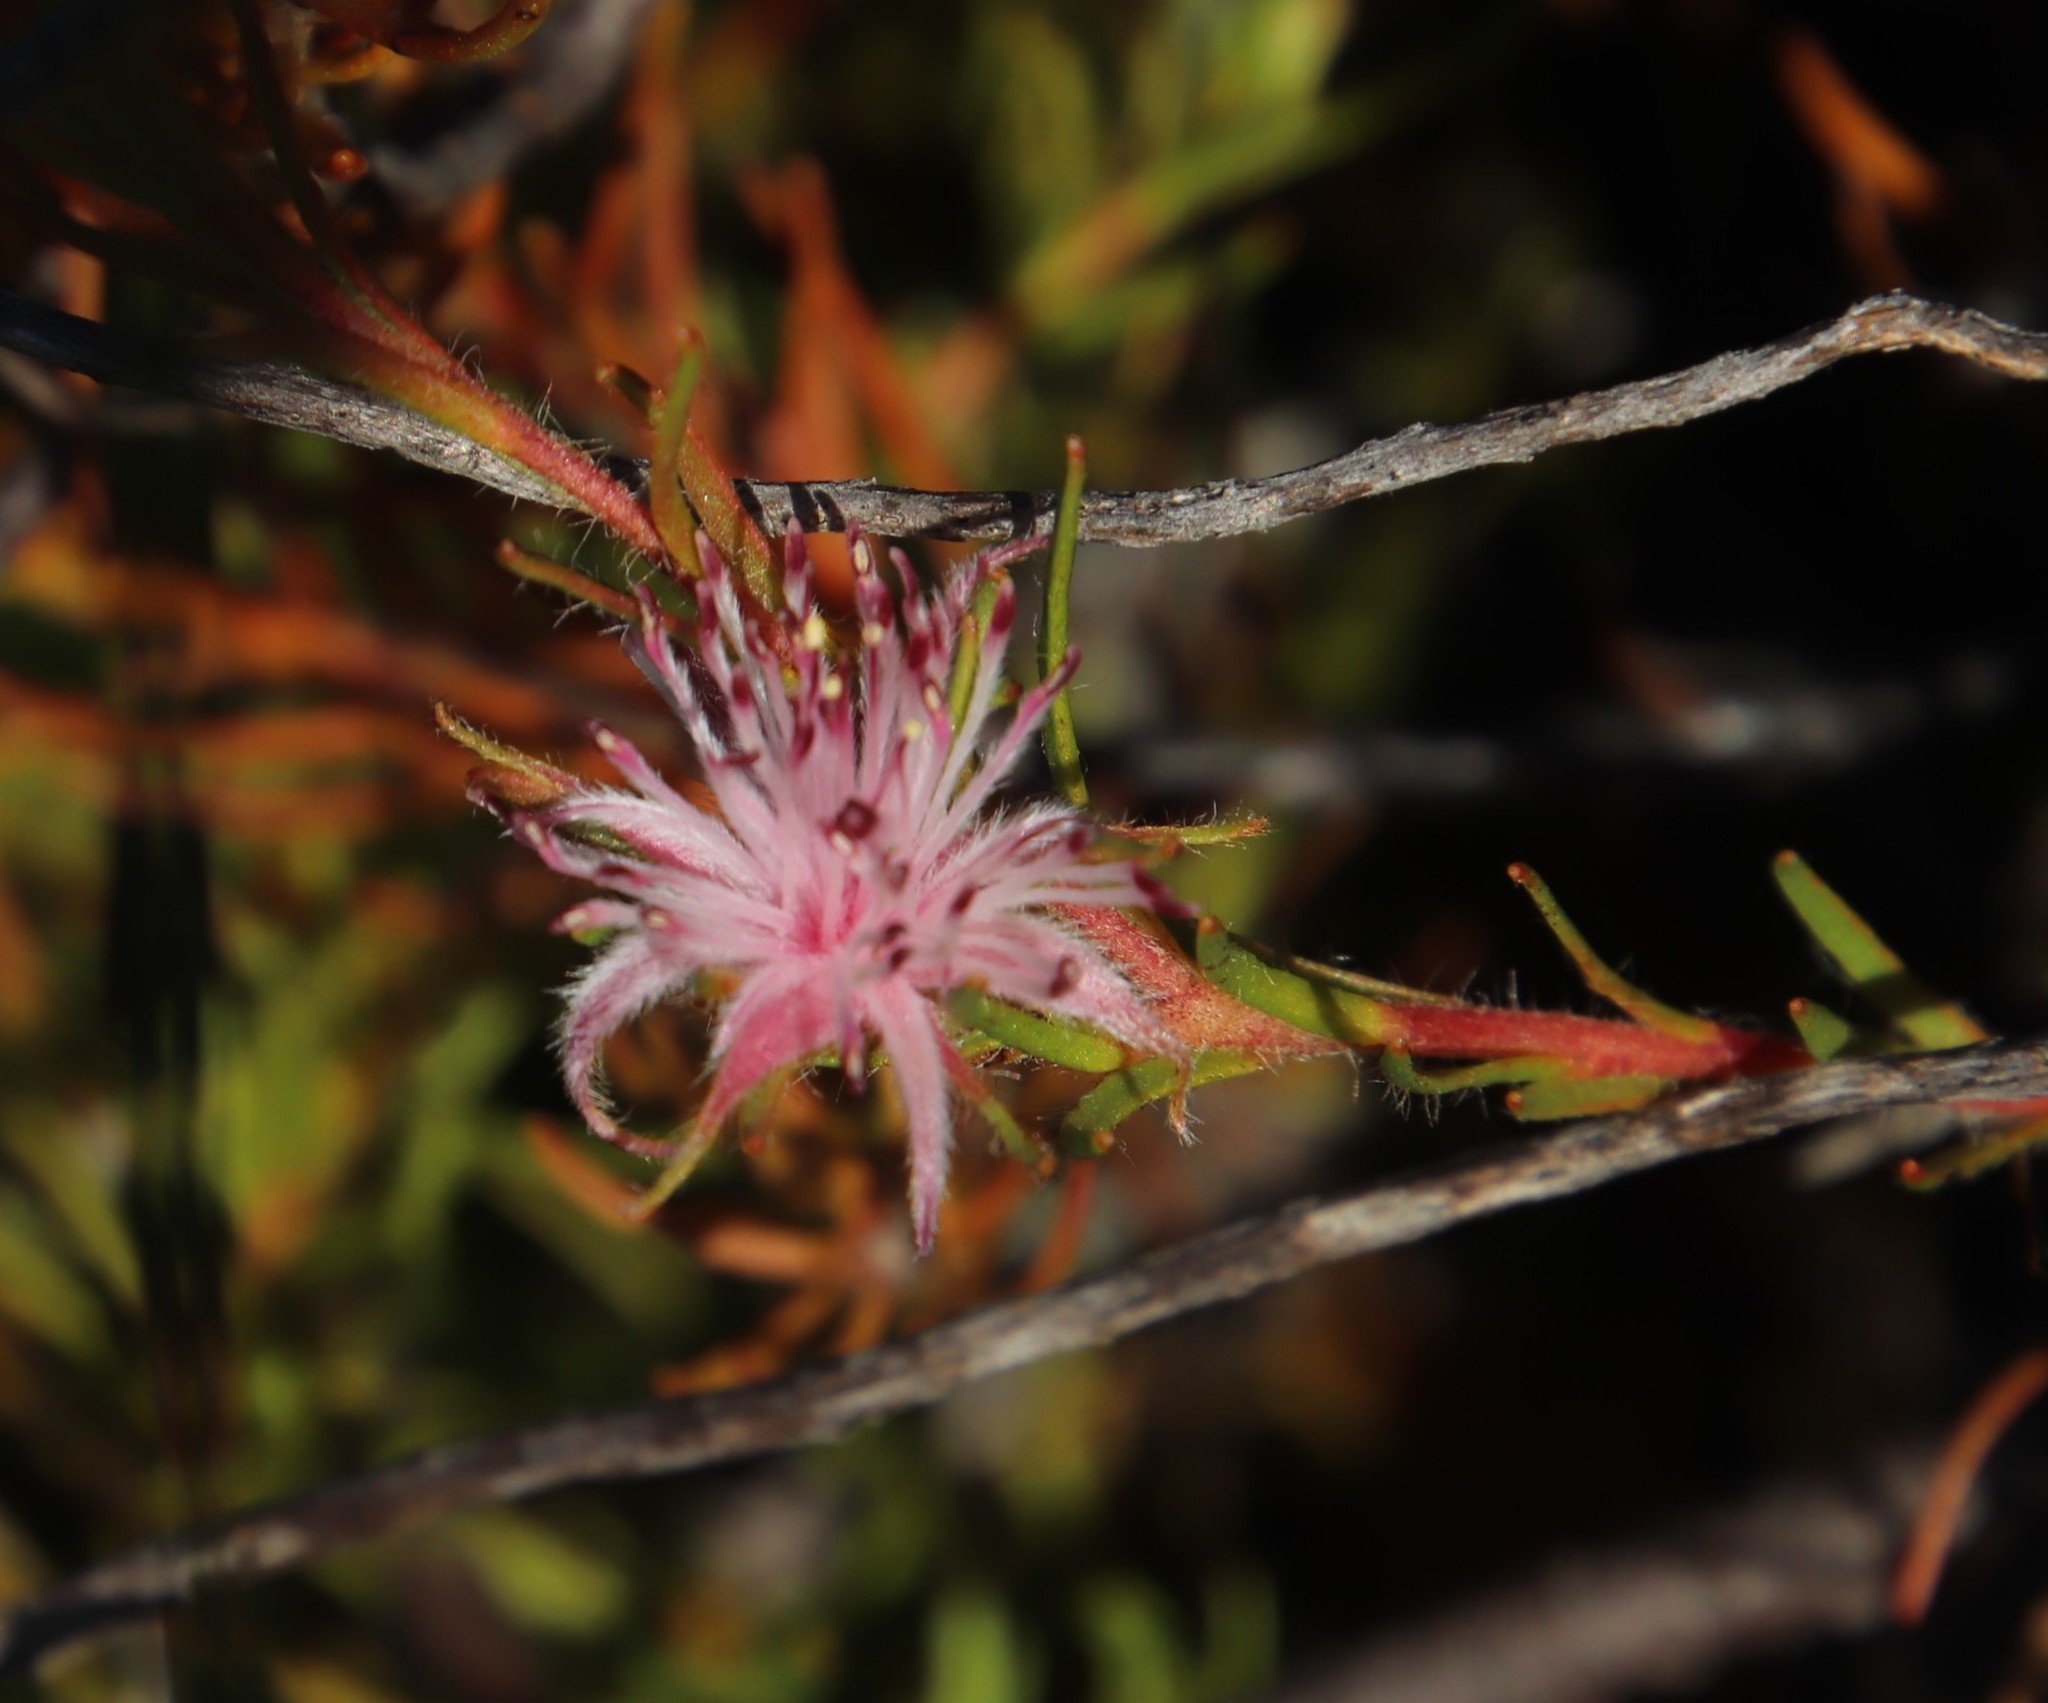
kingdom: Plantae
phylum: Tracheophyta
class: Magnoliopsida
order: Proteales
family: Proteaceae
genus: Diastella
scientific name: Diastella proteoides
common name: Flats silkypuff
